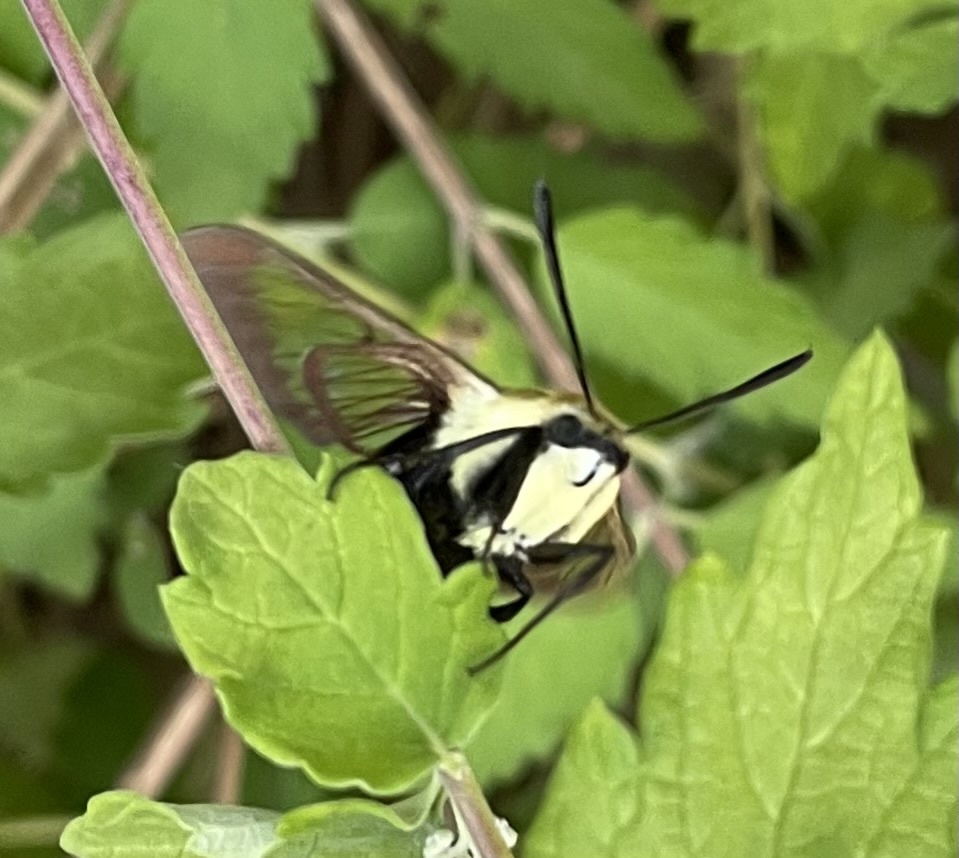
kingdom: Animalia
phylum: Arthropoda
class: Insecta
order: Lepidoptera
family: Sphingidae
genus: Hemaris
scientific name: Hemaris diffinis
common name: Bumblebee moth
